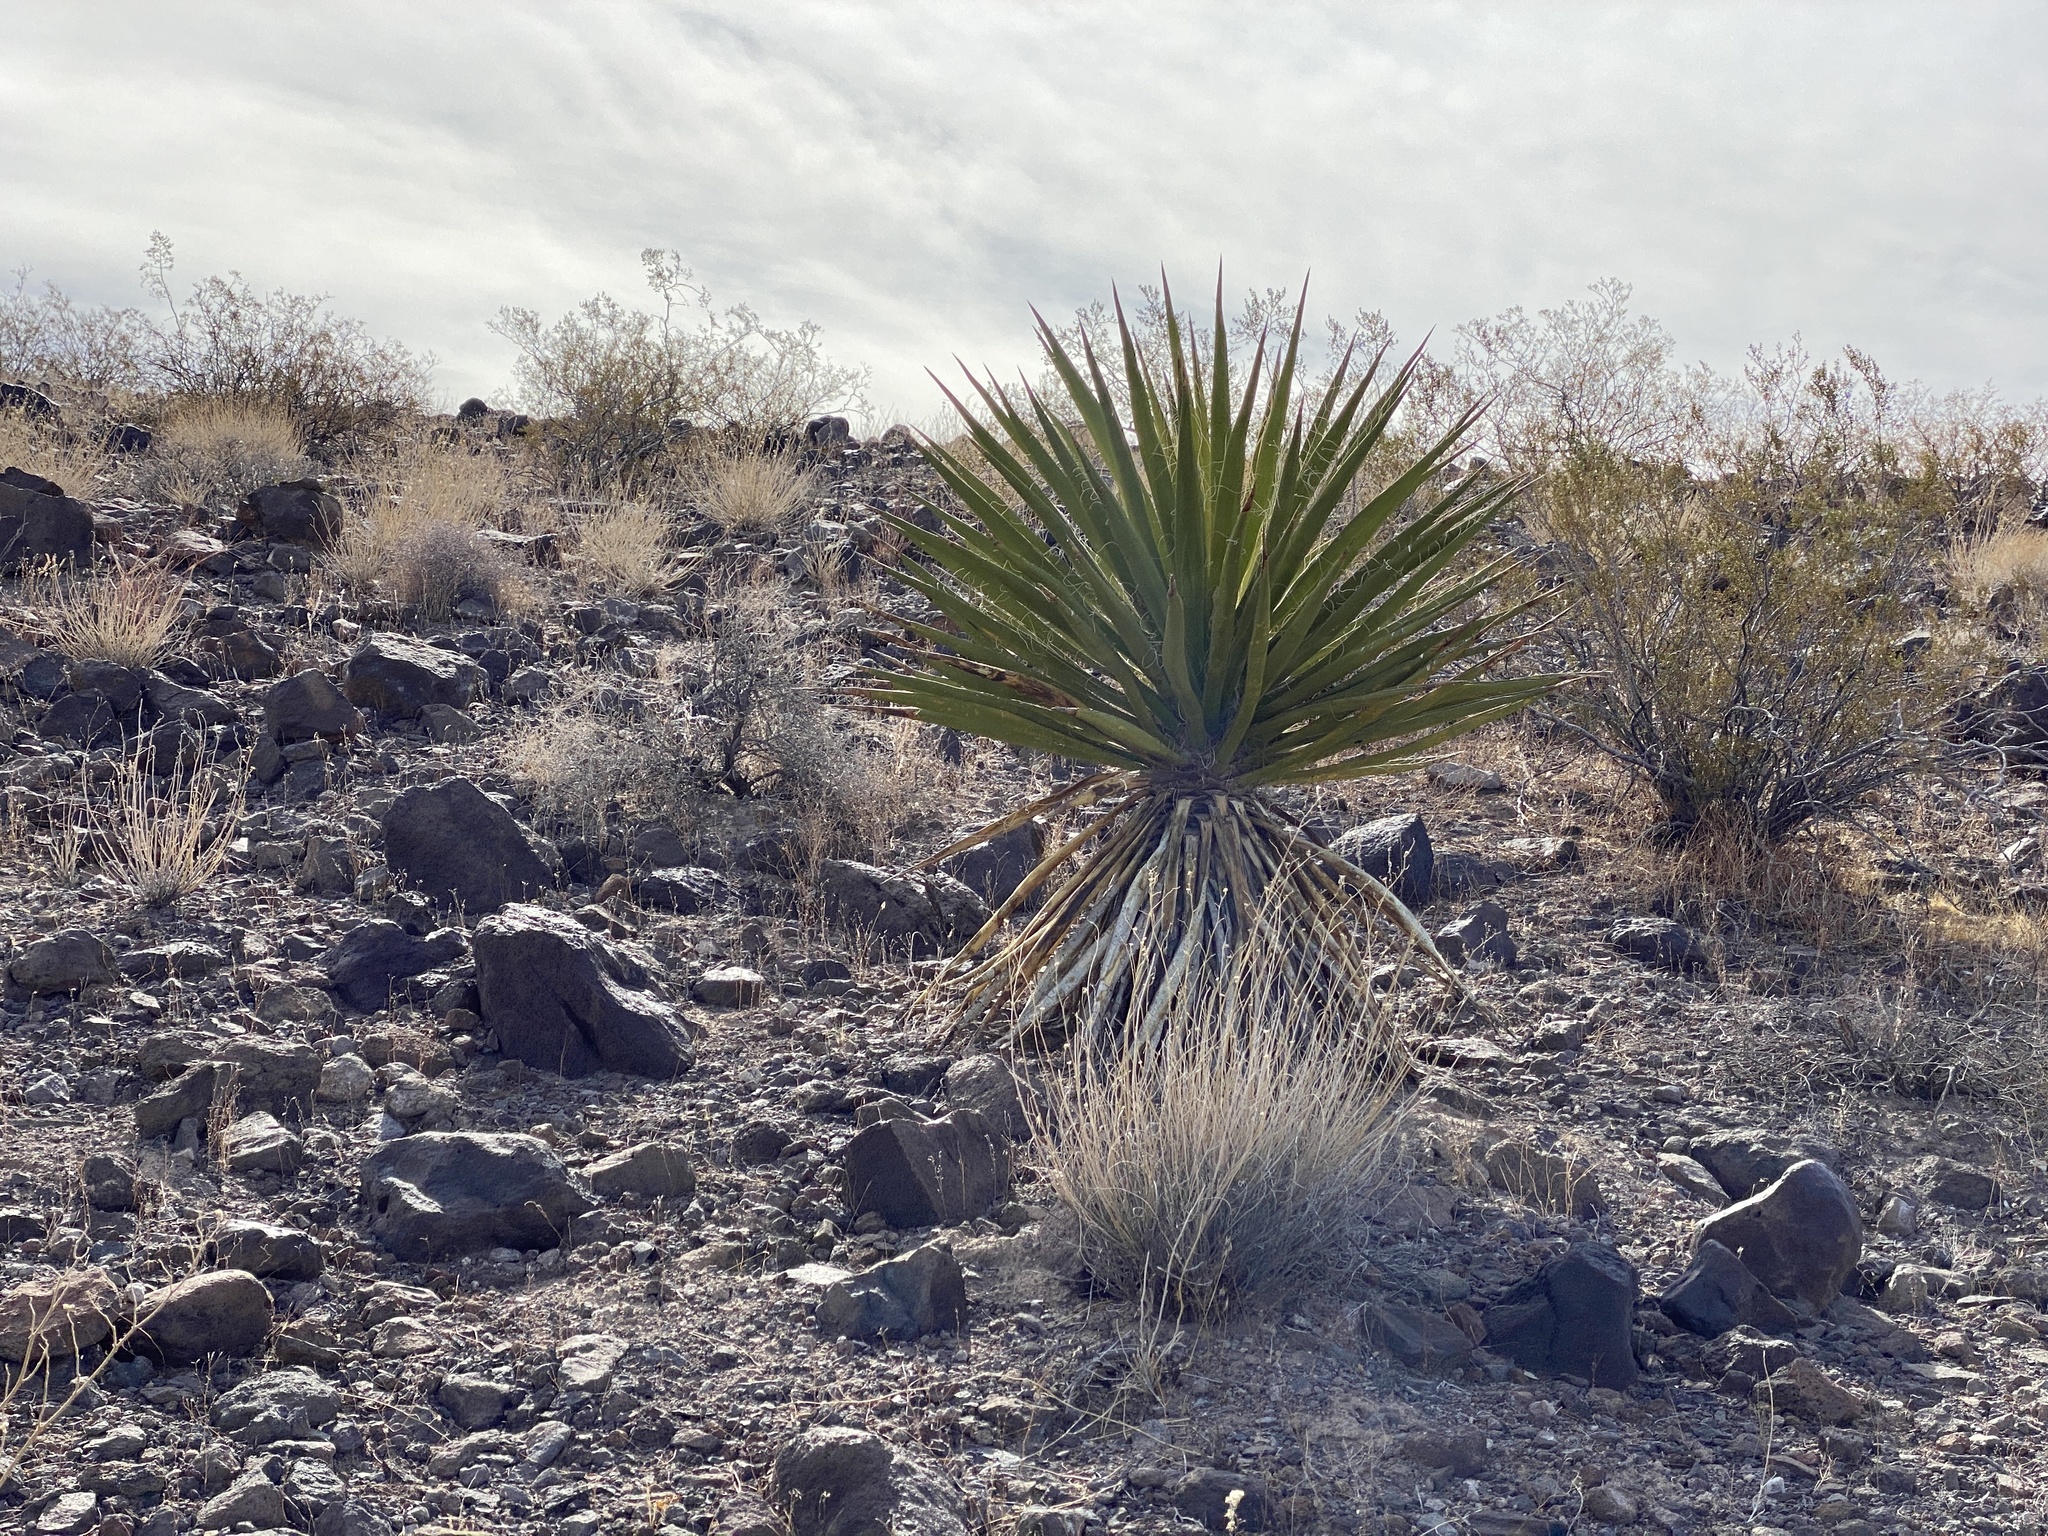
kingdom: Plantae
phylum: Tracheophyta
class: Liliopsida
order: Asparagales
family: Asparagaceae
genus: Yucca
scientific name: Yucca schidigera
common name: Mojave yucca
